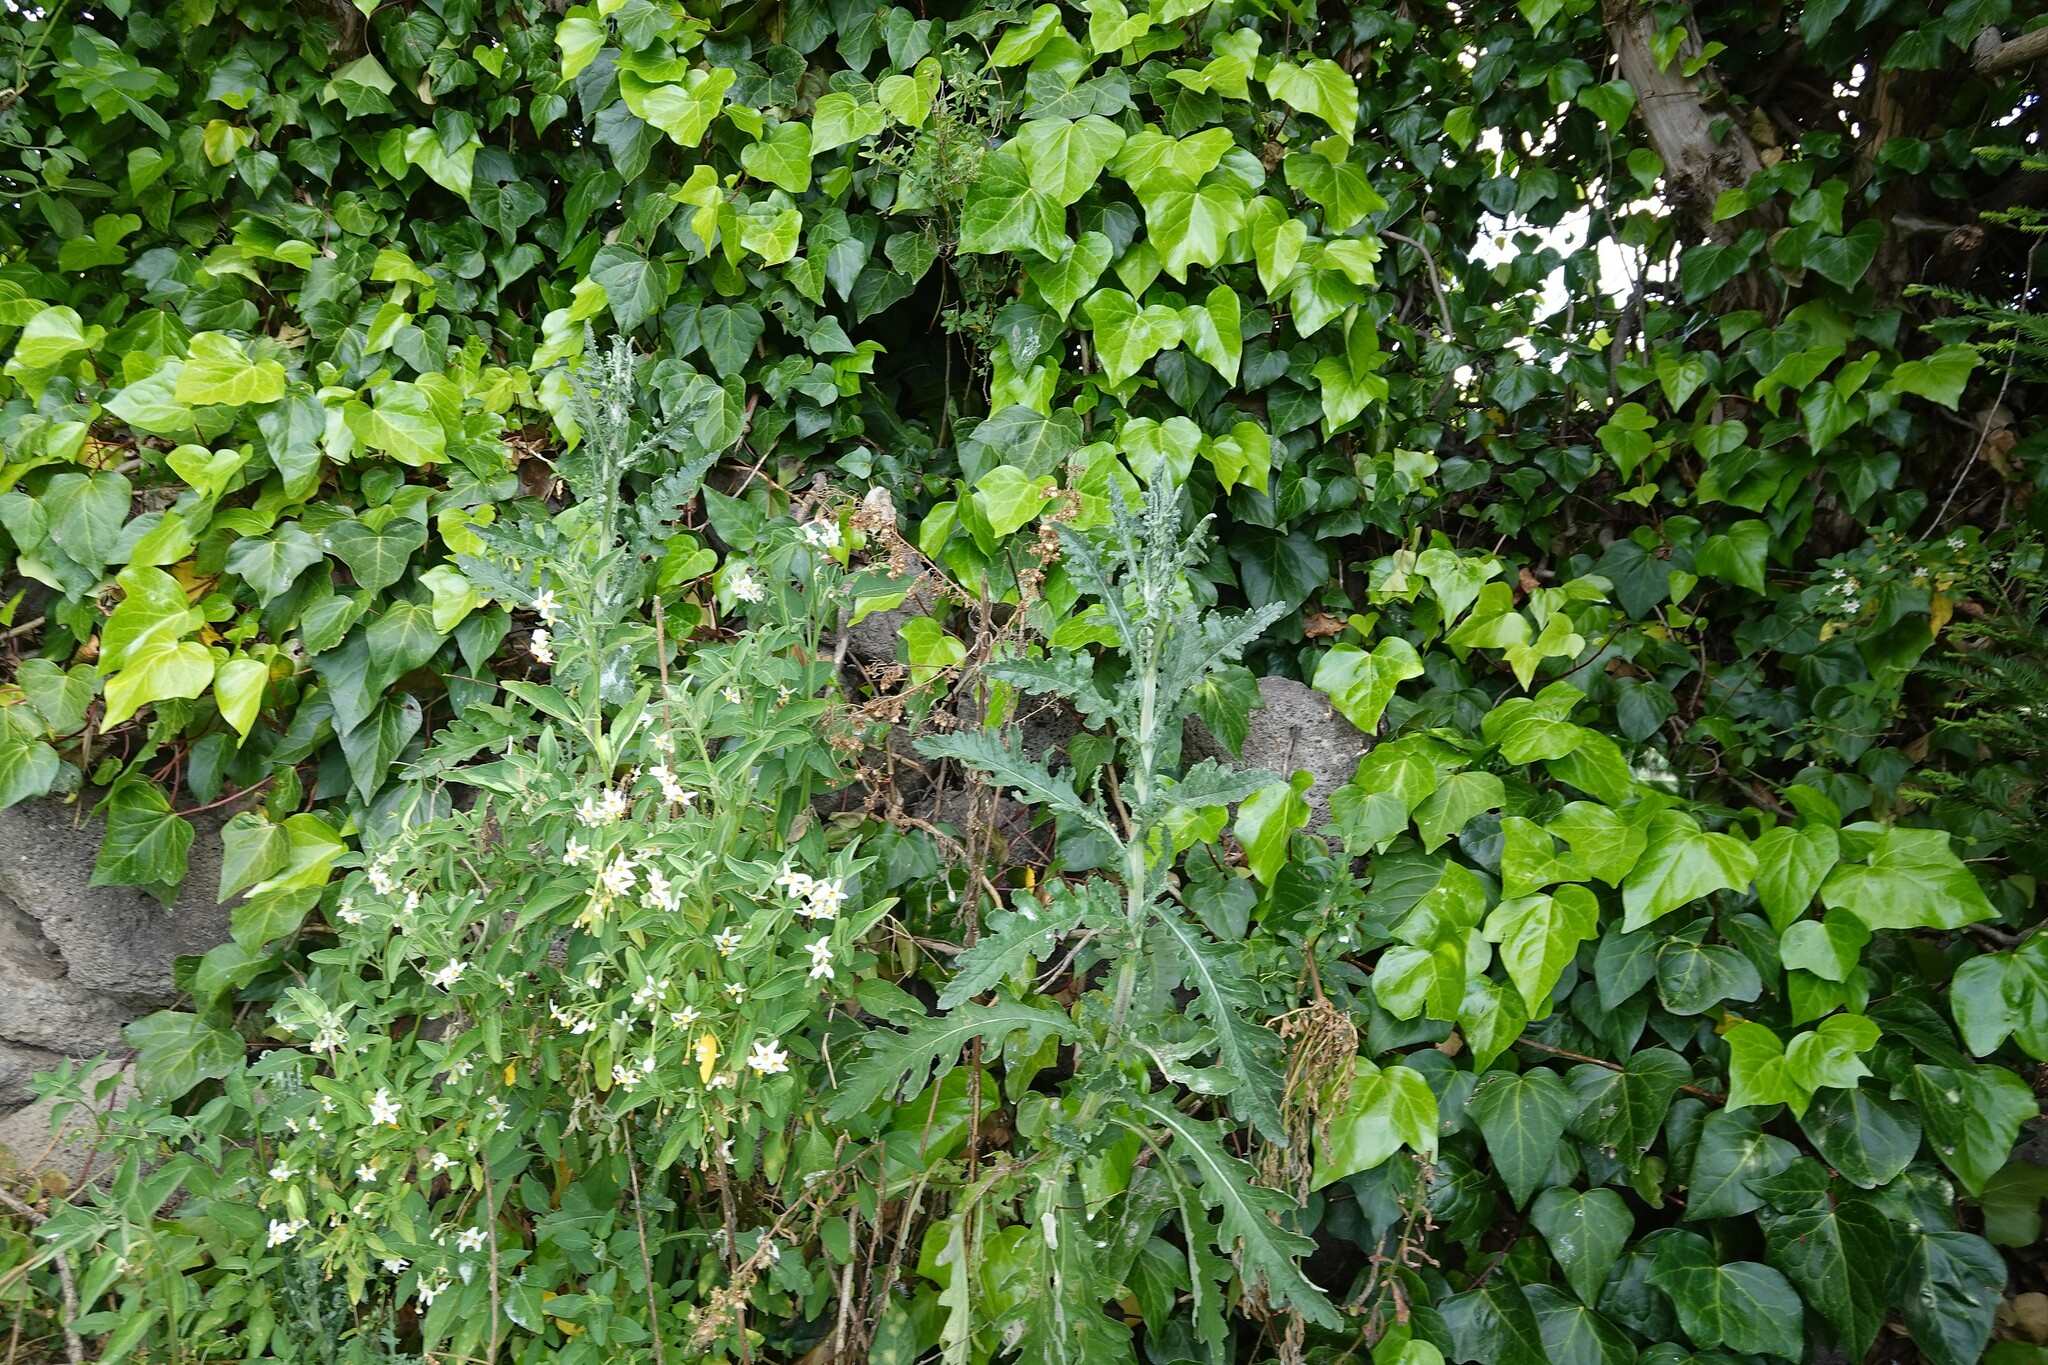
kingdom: Plantae
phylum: Tracheophyta
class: Magnoliopsida
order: Asterales
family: Asteraceae
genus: Senecio
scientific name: Senecio glomeratus
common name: Cutleaf burnweed
